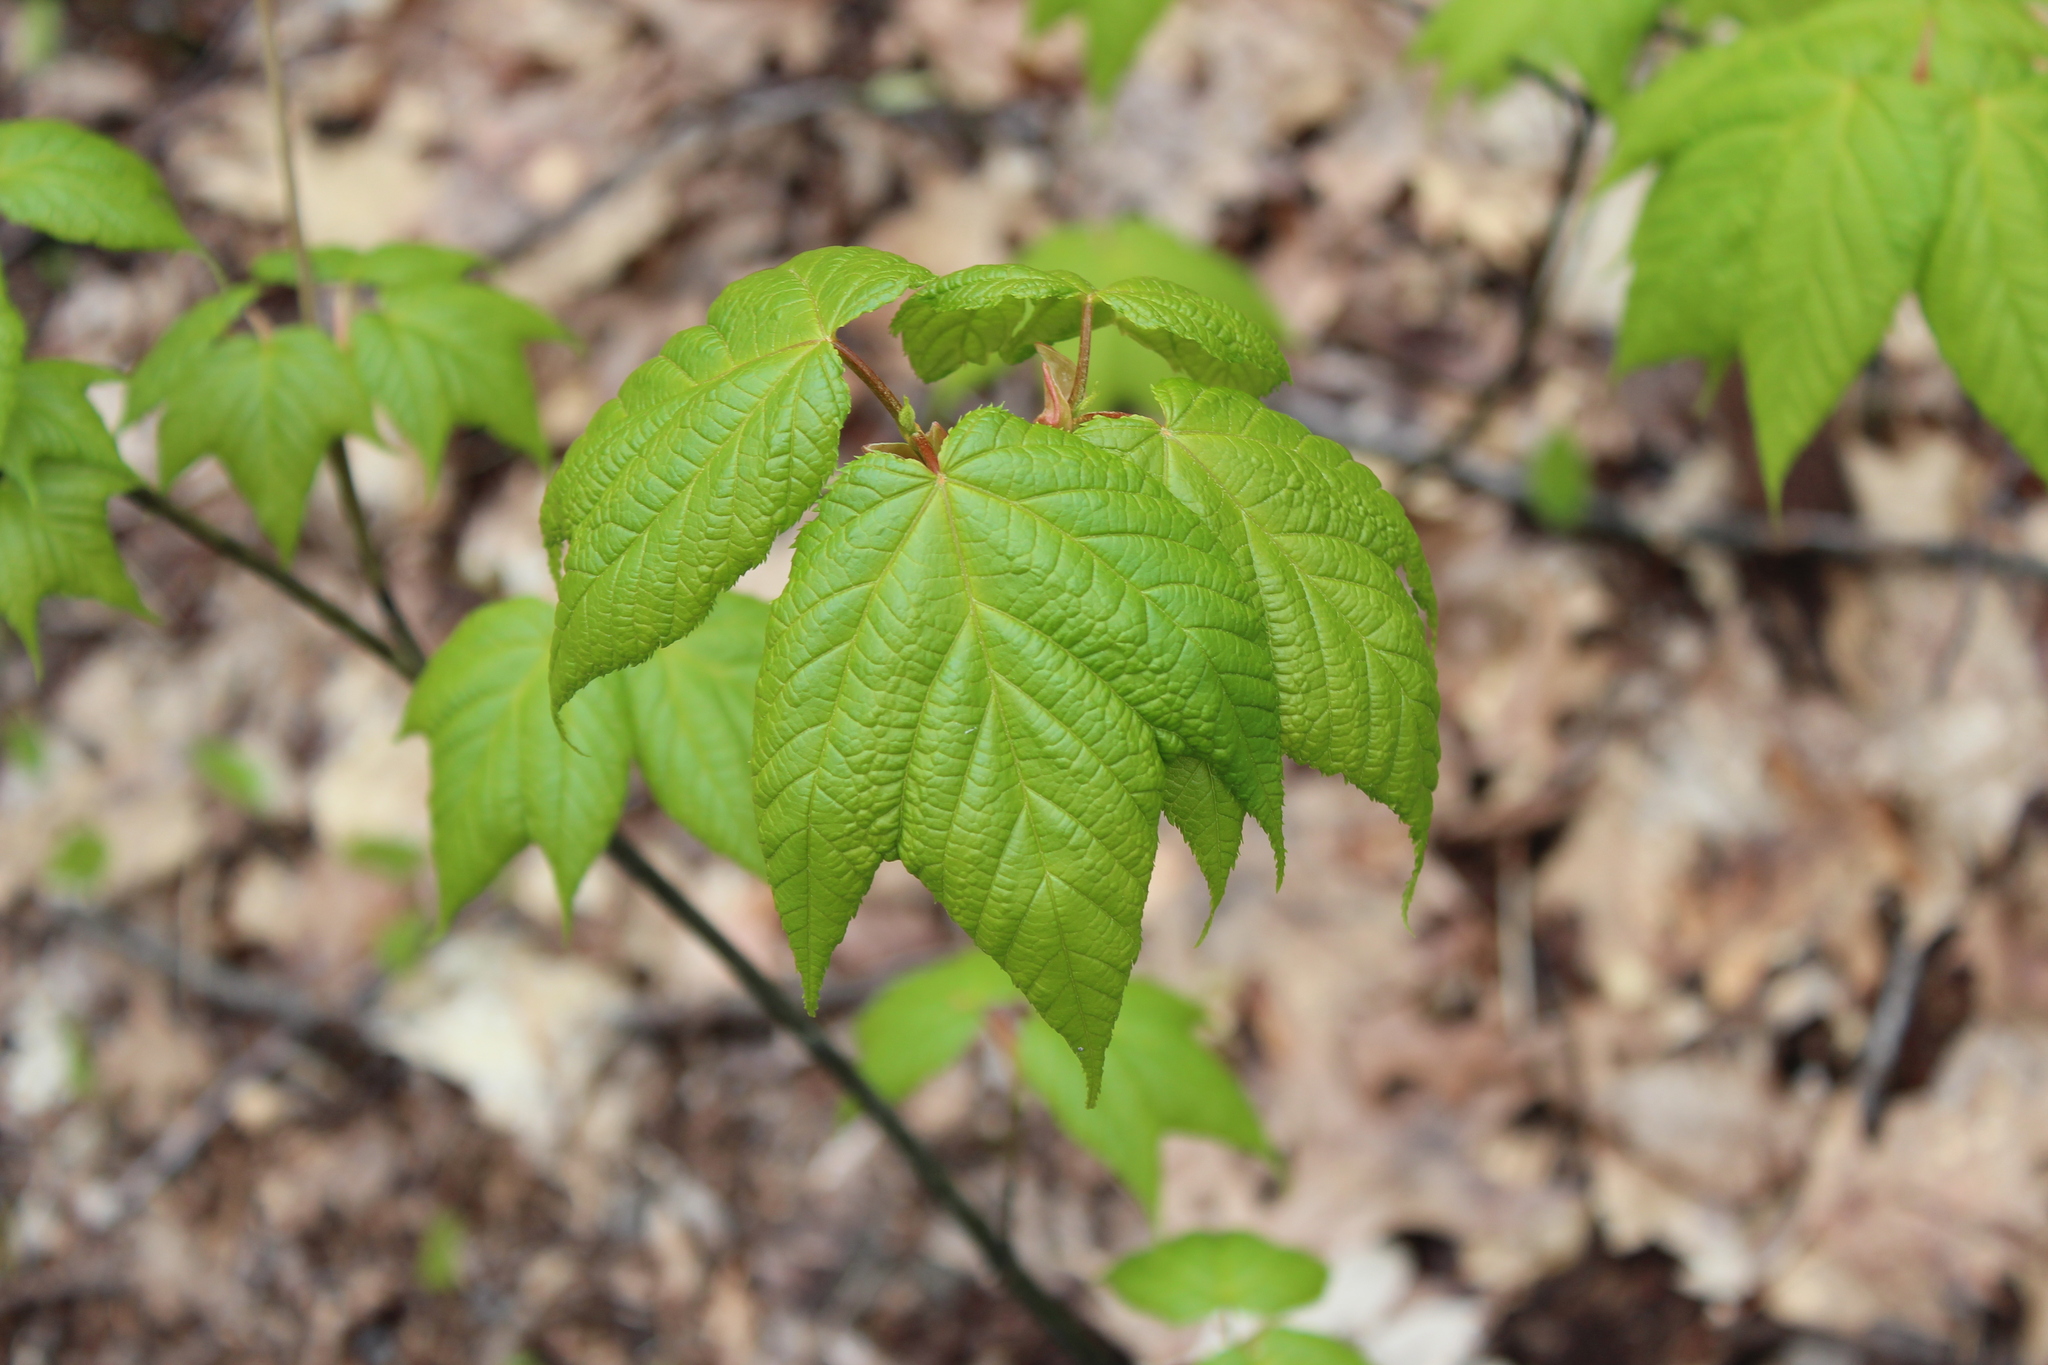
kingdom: Plantae
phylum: Tracheophyta
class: Magnoliopsida
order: Sapindales
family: Sapindaceae
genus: Acer
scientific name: Acer pensylvanicum
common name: Moosewood
